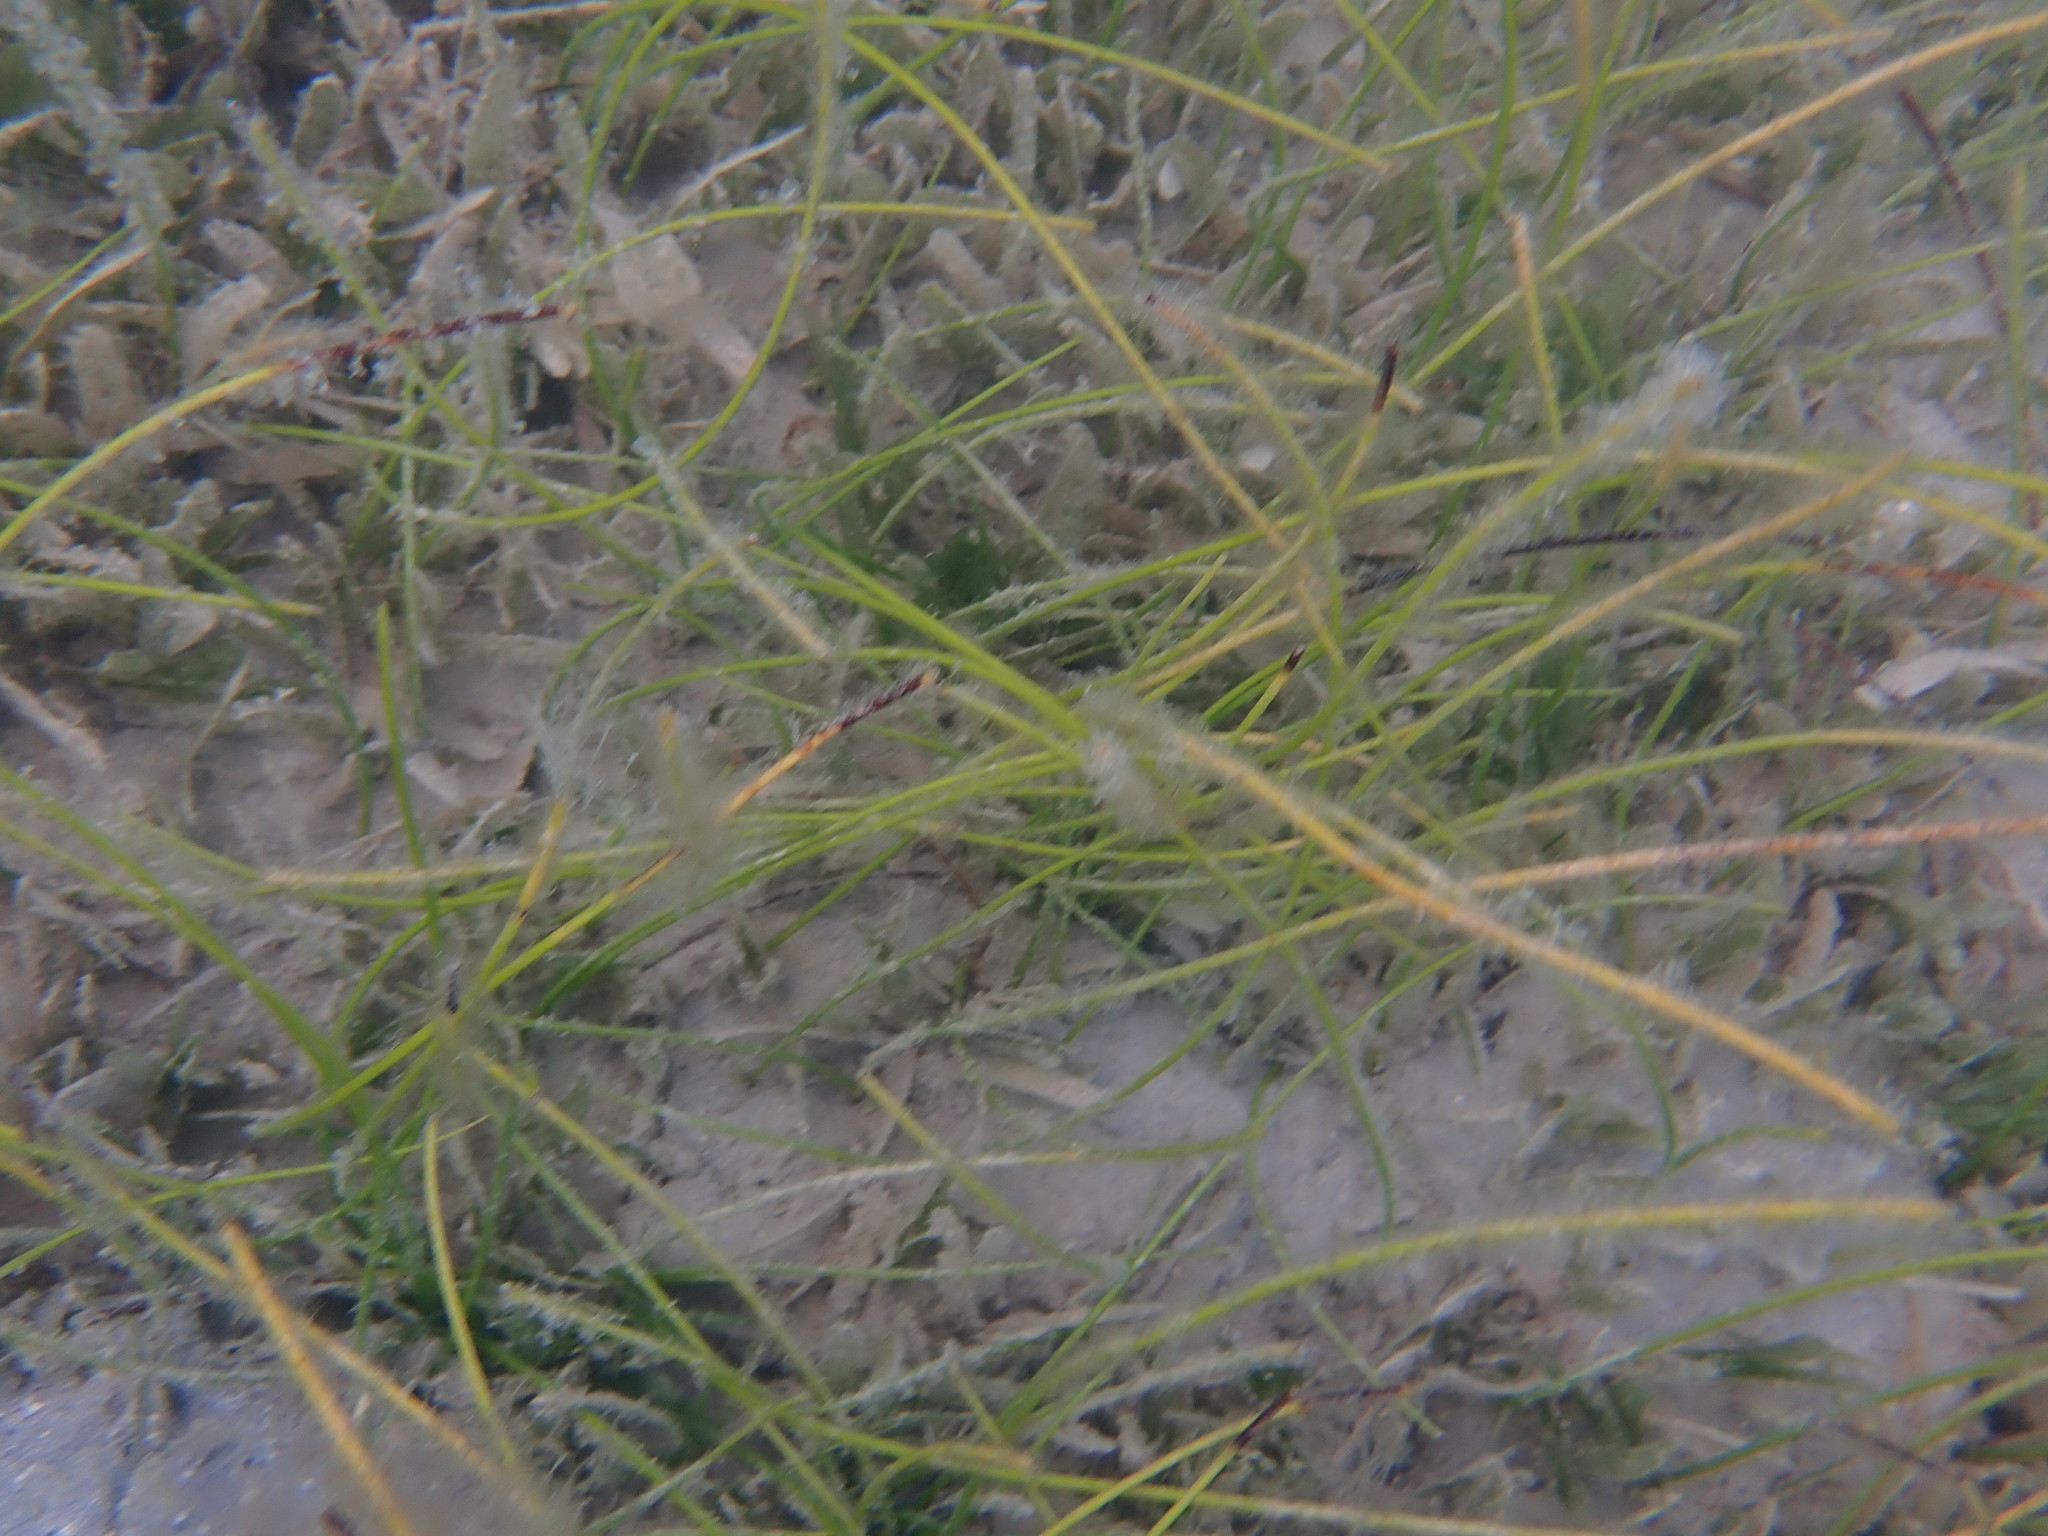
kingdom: Plantae
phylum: Tracheophyta
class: Liliopsida
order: Alismatales
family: Cymodoceaceae
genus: Syringodium
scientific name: Syringodium filiforme
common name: Manatee grass
